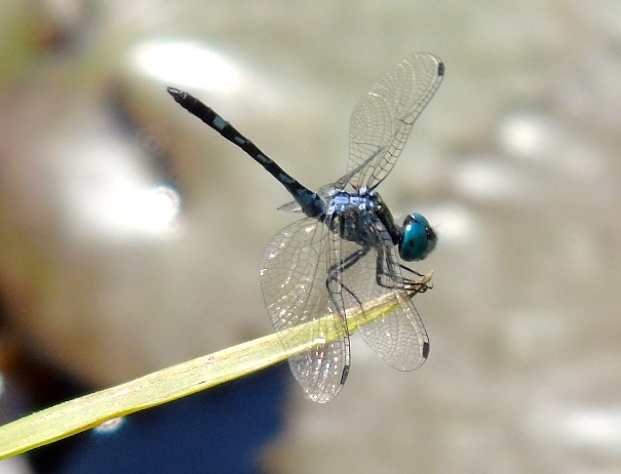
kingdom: Animalia
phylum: Arthropoda
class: Insecta
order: Odonata
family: Libellulidae
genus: Micrathyria
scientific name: Micrathyria hagenii
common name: Thornbush dasher
